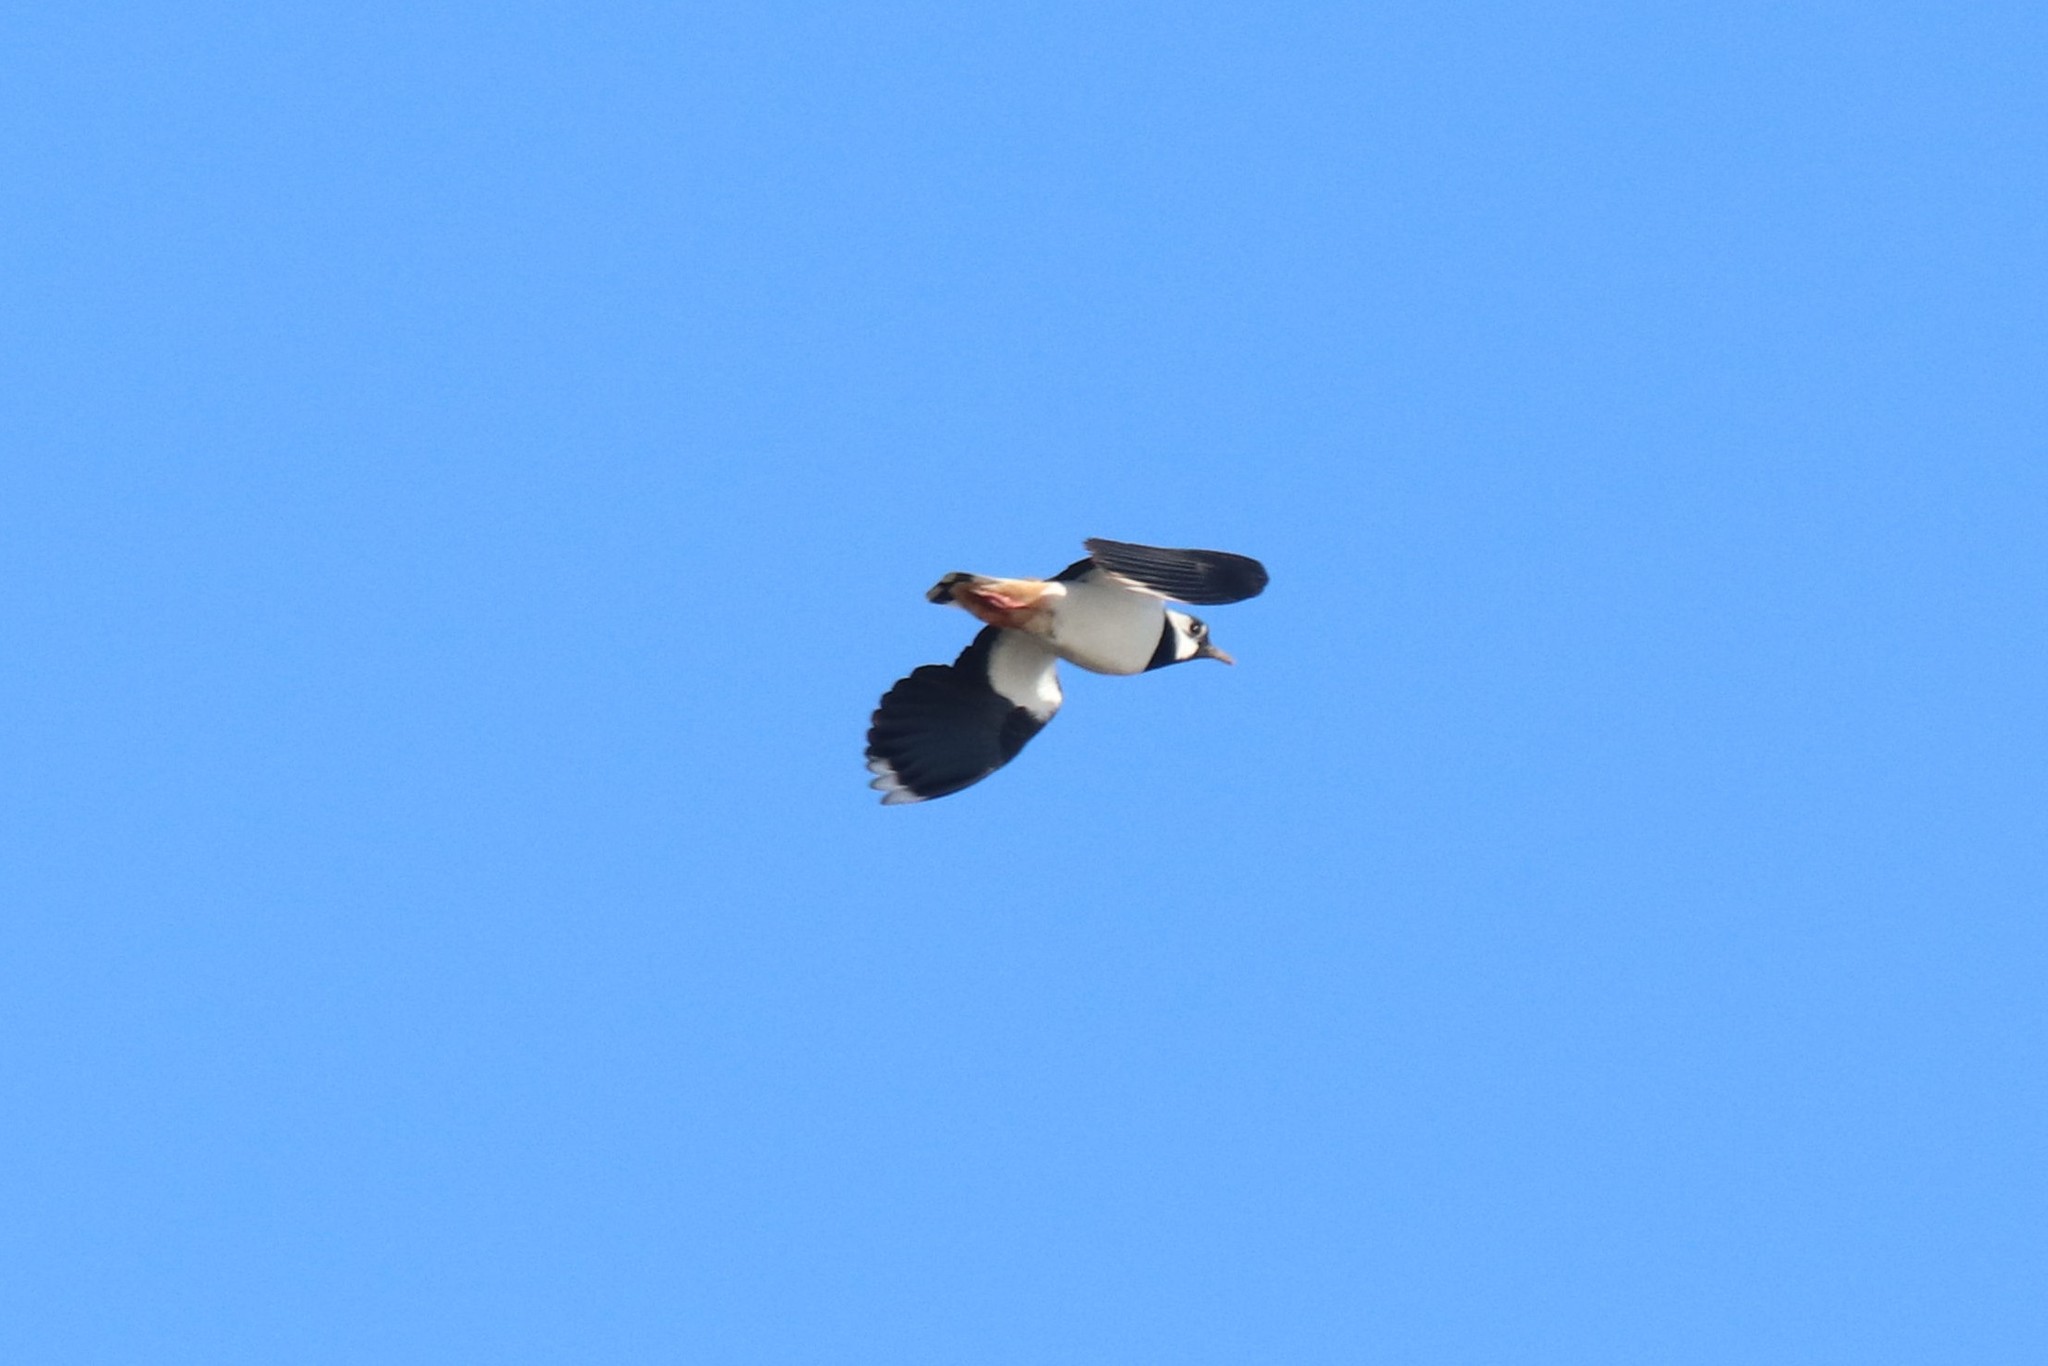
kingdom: Animalia
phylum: Chordata
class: Aves
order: Charadriiformes
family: Charadriidae
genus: Vanellus
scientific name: Vanellus vanellus
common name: Northern lapwing
